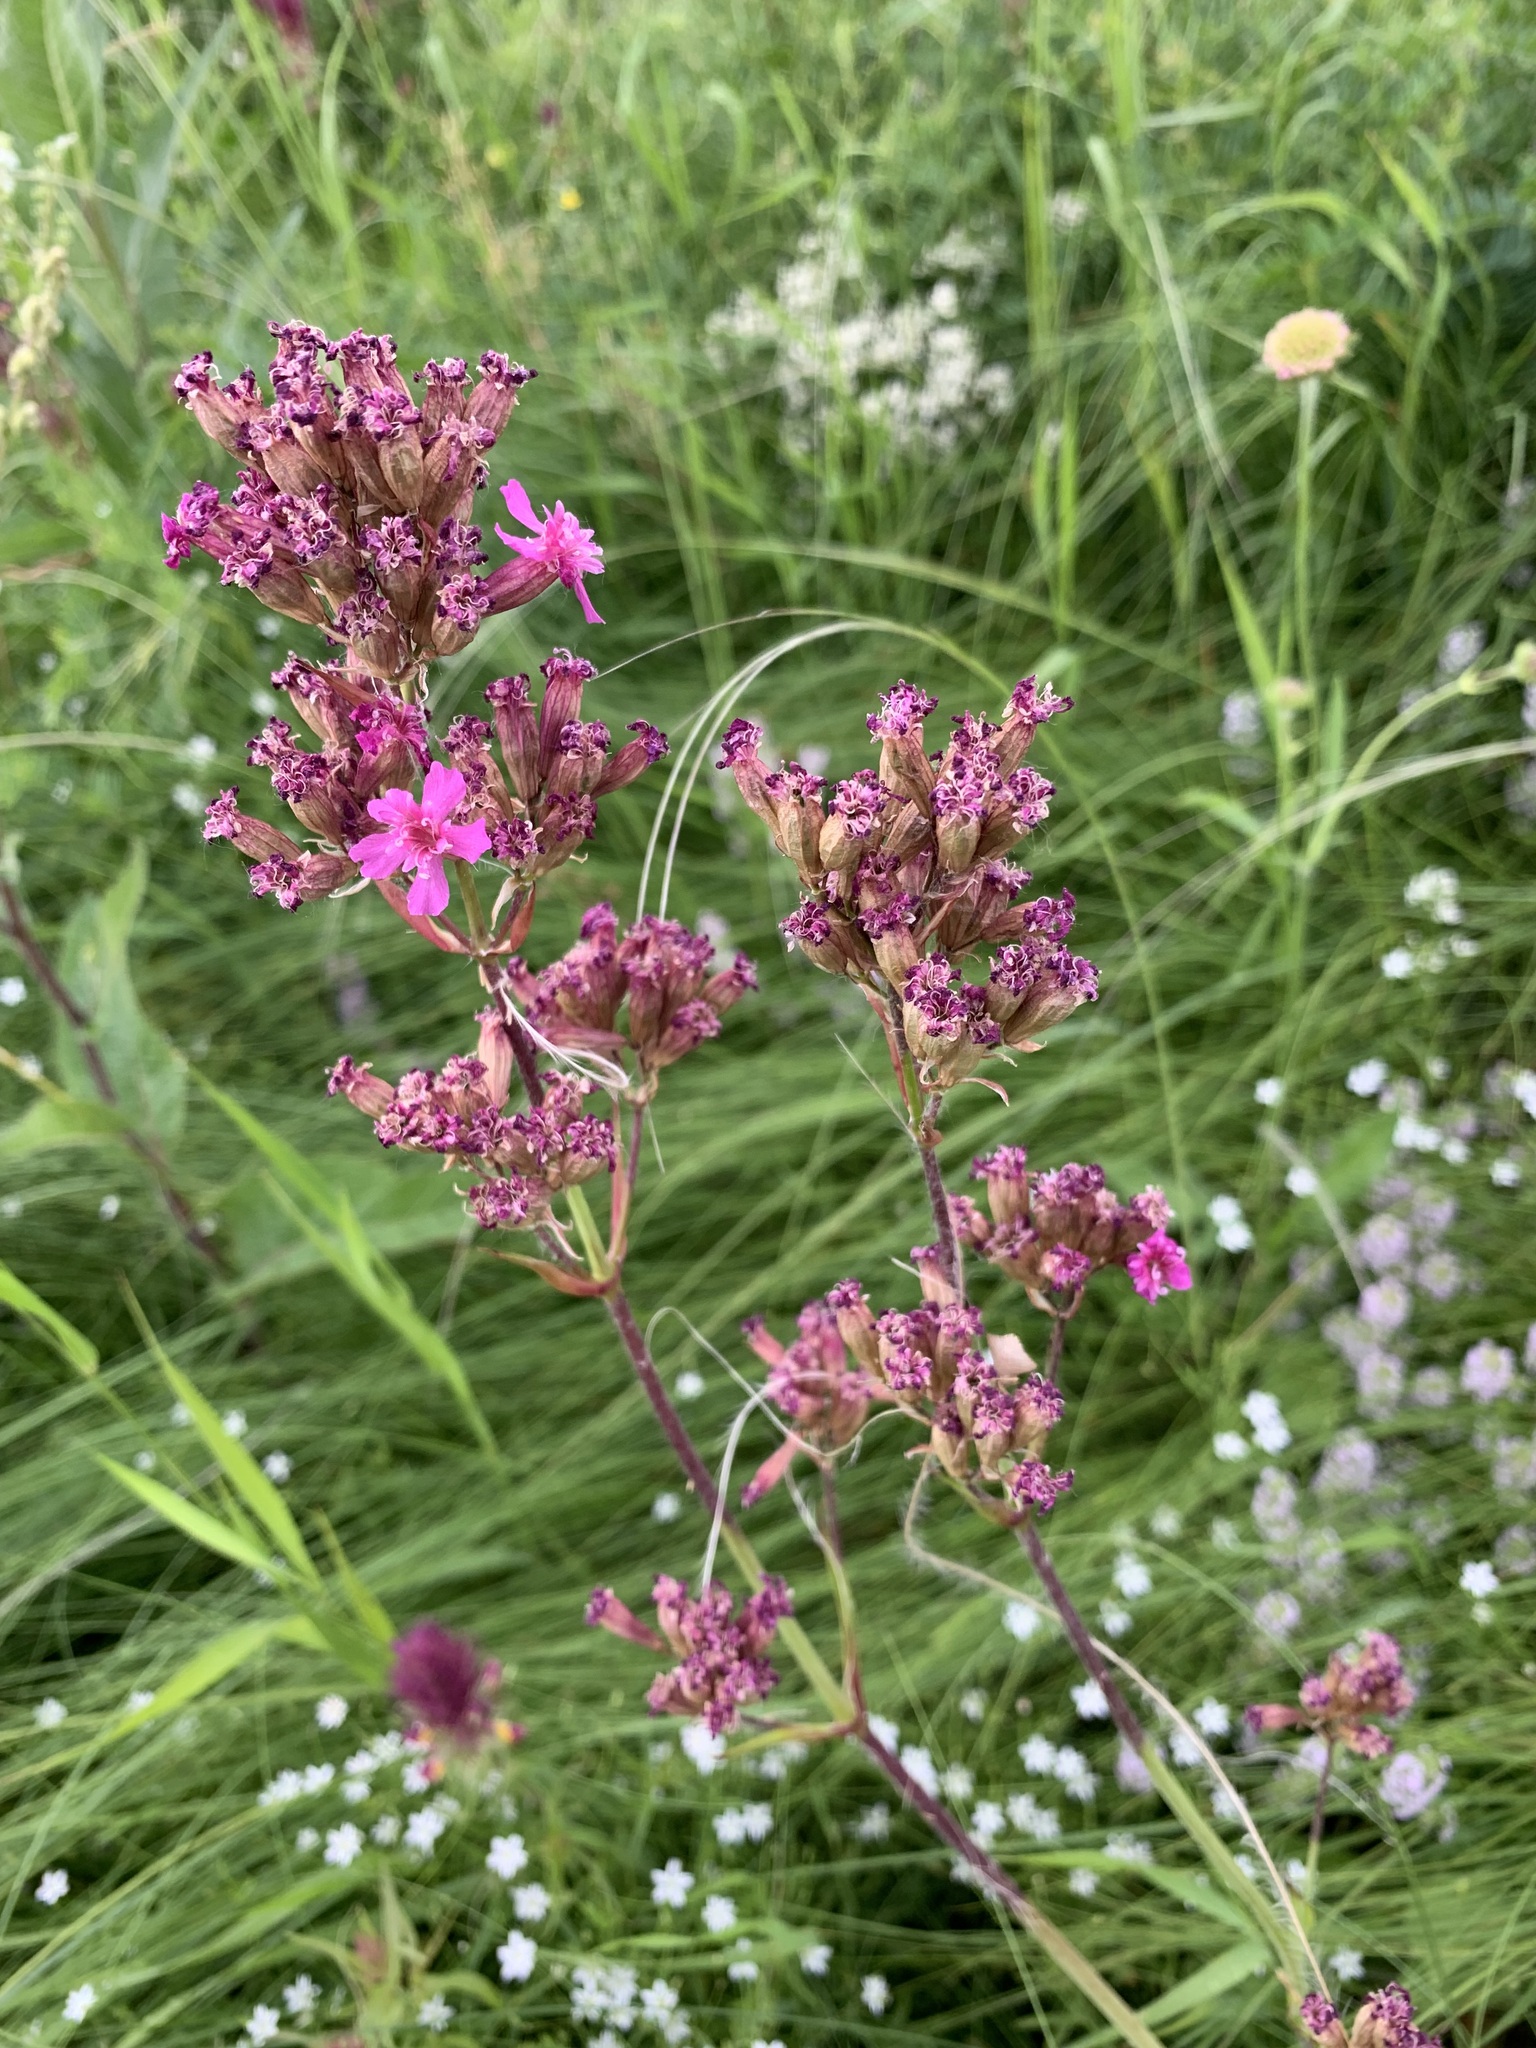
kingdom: Plantae
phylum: Tracheophyta
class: Magnoliopsida
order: Caryophyllales
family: Caryophyllaceae
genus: Viscaria
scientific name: Viscaria vulgaris
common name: Clammy campion
